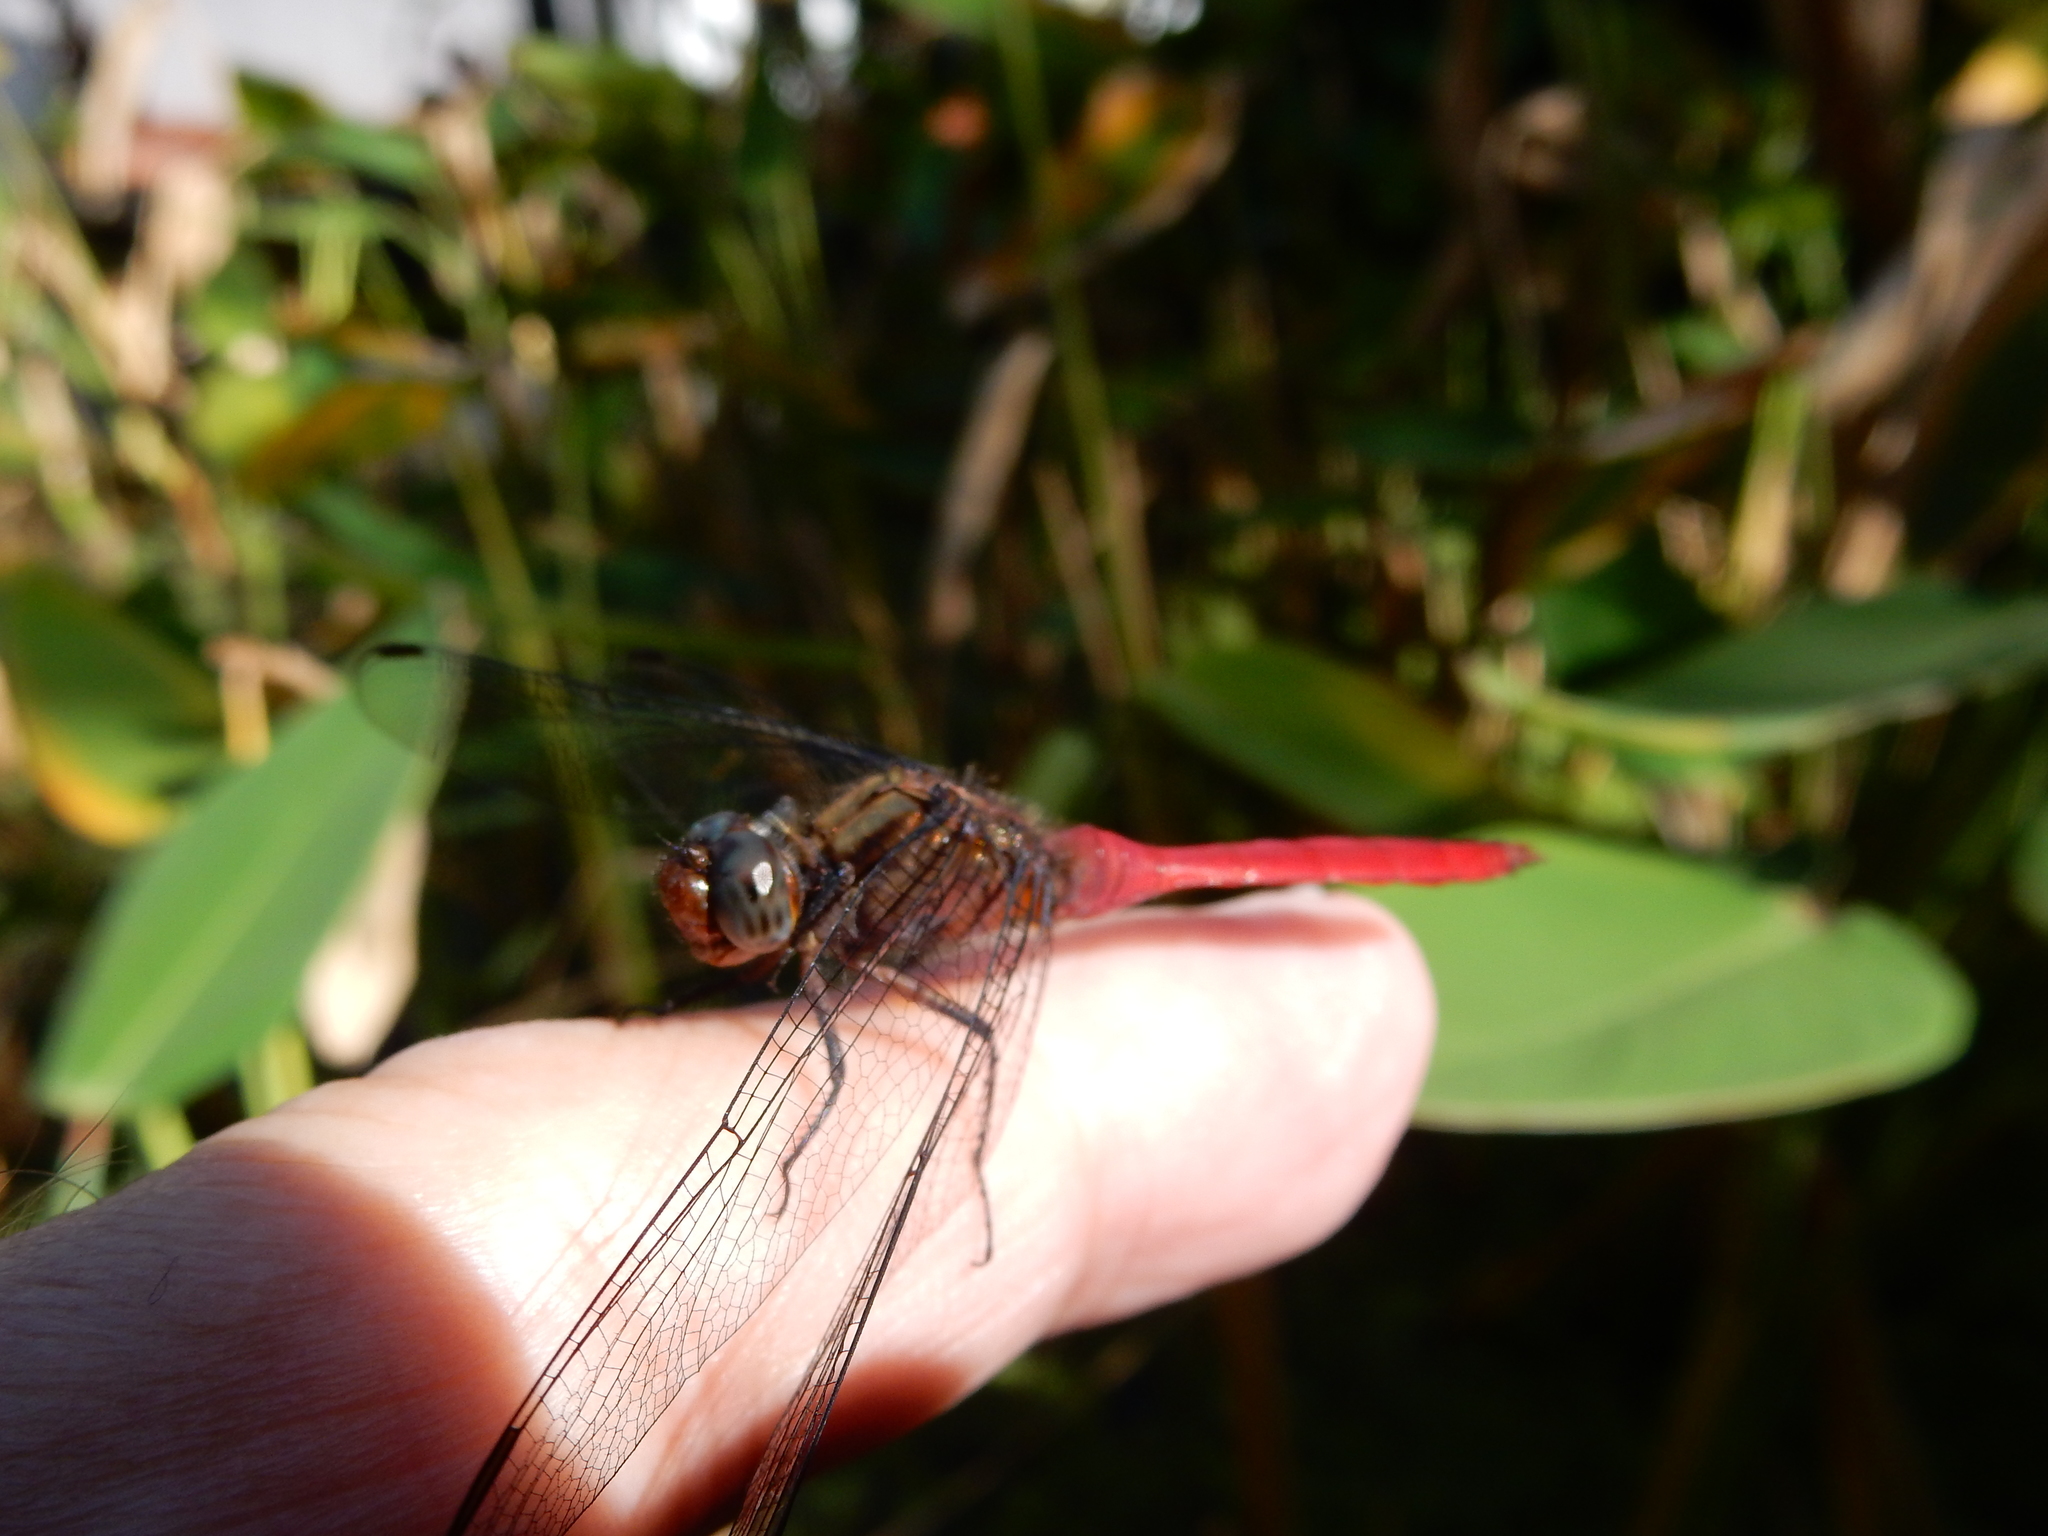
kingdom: Animalia
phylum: Arthropoda
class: Insecta
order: Odonata
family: Libellulidae
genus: Orthetrum
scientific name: Orthetrum villosovittatum
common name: Firery skimmer
